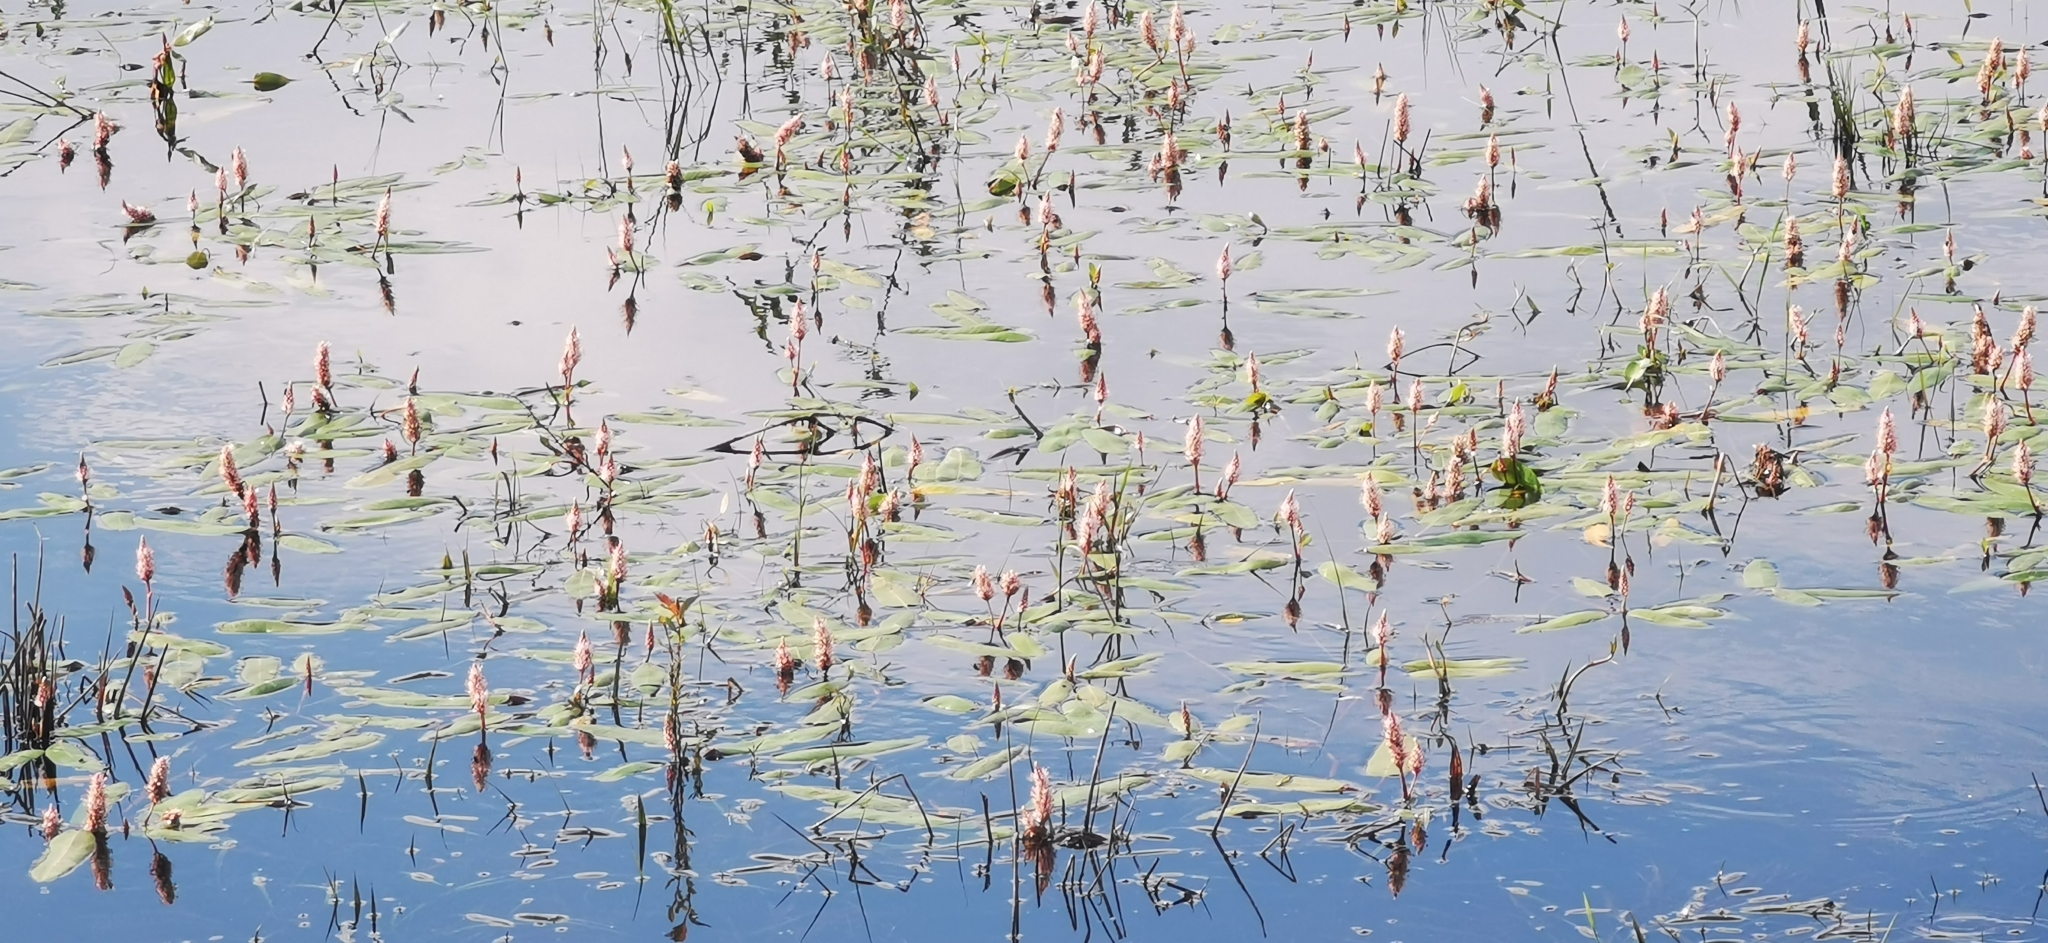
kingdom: Plantae
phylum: Tracheophyta
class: Magnoliopsida
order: Caryophyllales
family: Polygonaceae
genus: Persicaria
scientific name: Persicaria amphibia
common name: Amphibious bistort
